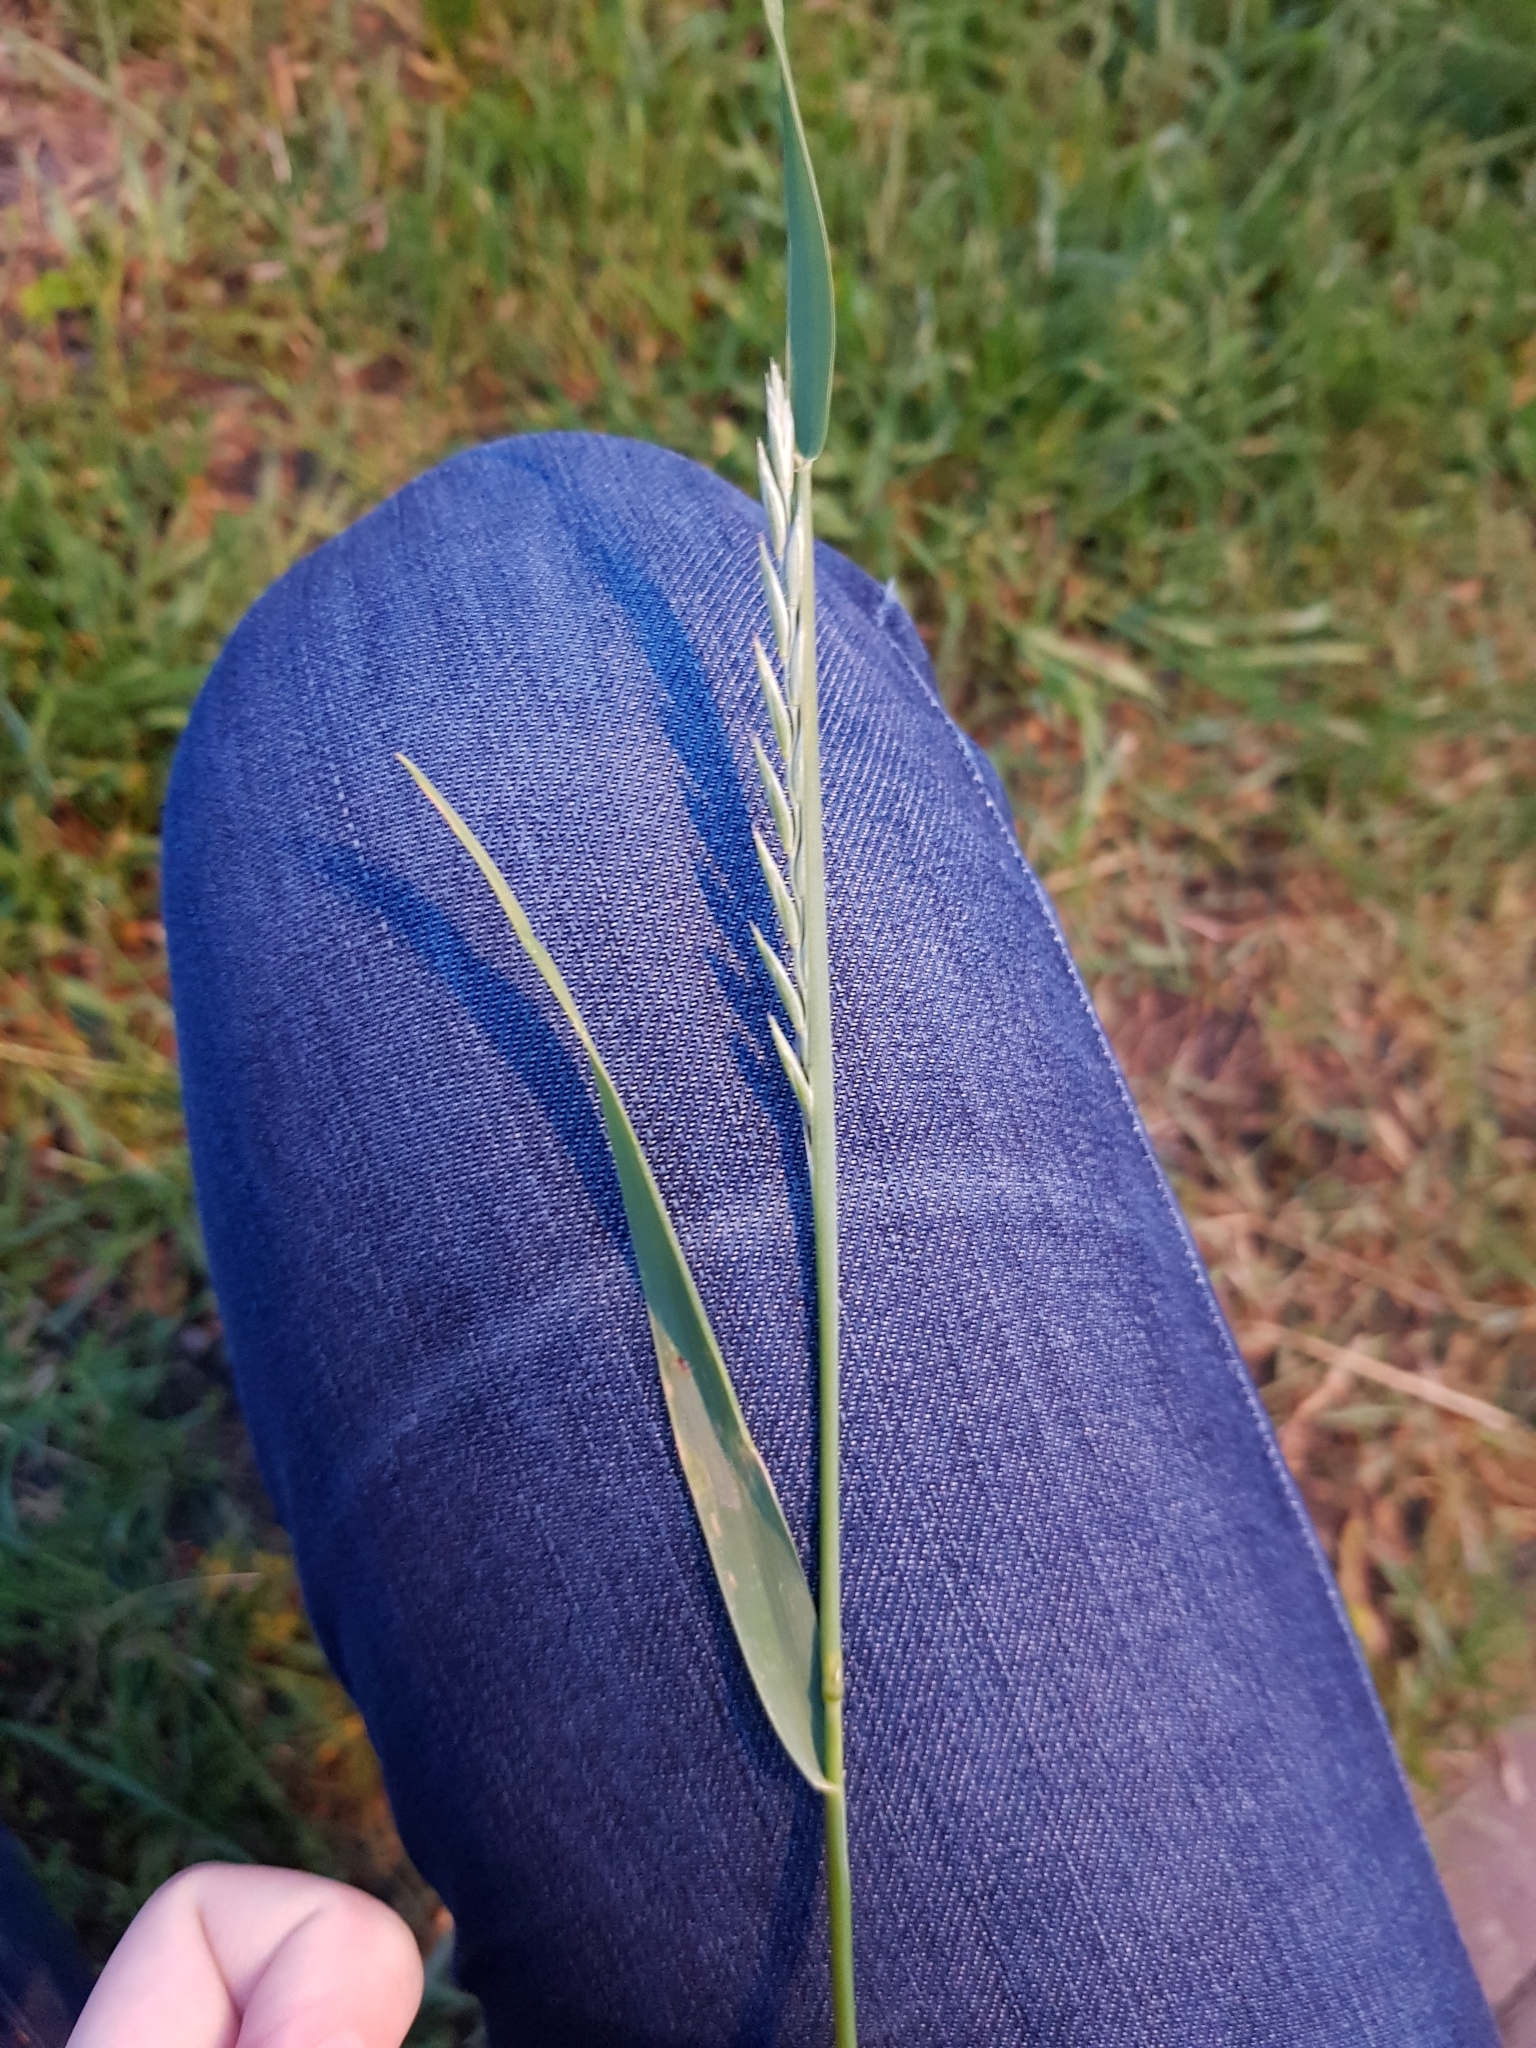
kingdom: Plantae
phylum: Tracheophyta
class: Liliopsida
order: Poales
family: Poaceae
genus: Elymus
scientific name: Elymus repens
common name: Quackgrass
